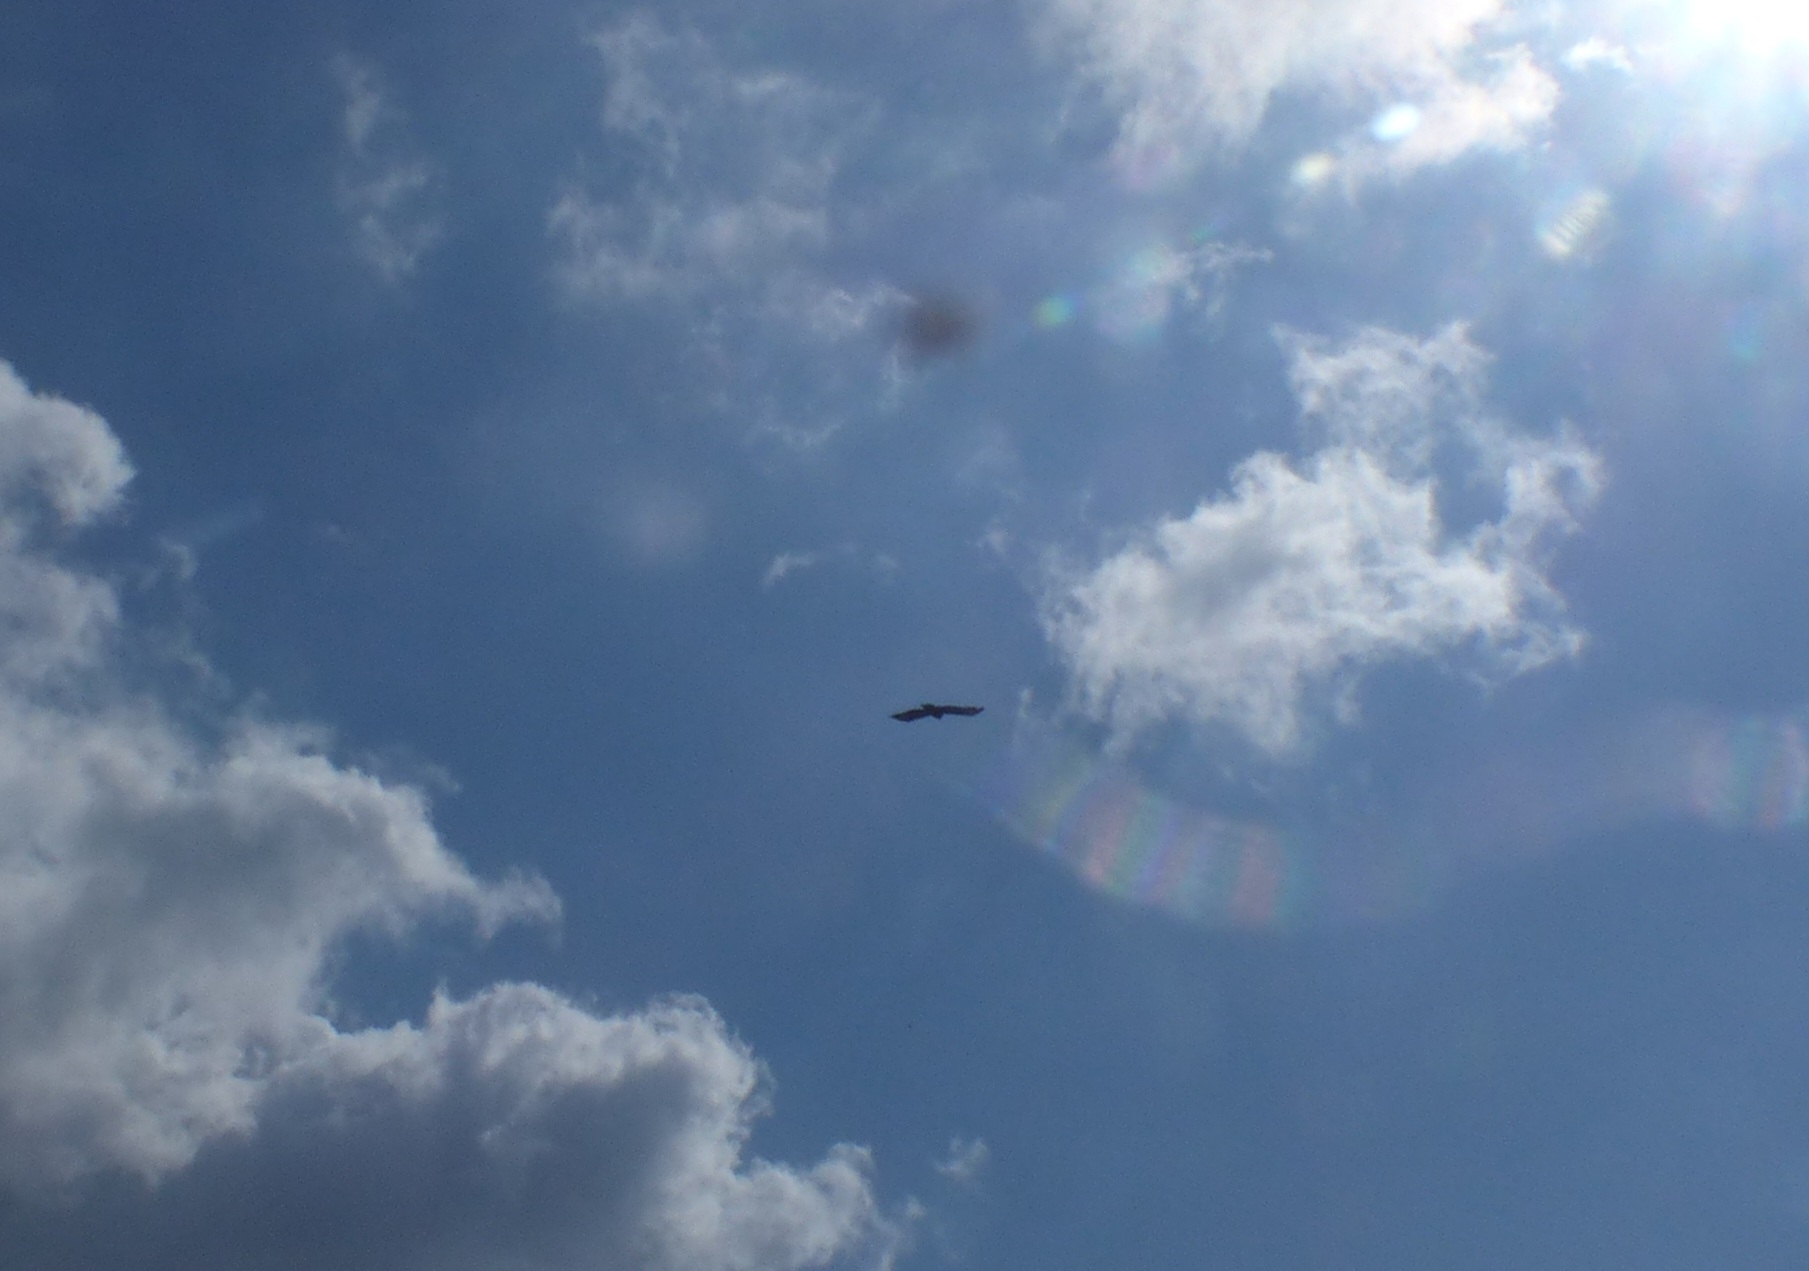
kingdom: Animalia
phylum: Chordata
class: Aves
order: Accipitriformes
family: Accipitridae
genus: Buteo
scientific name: Buteo buteo
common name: Common buzzard
